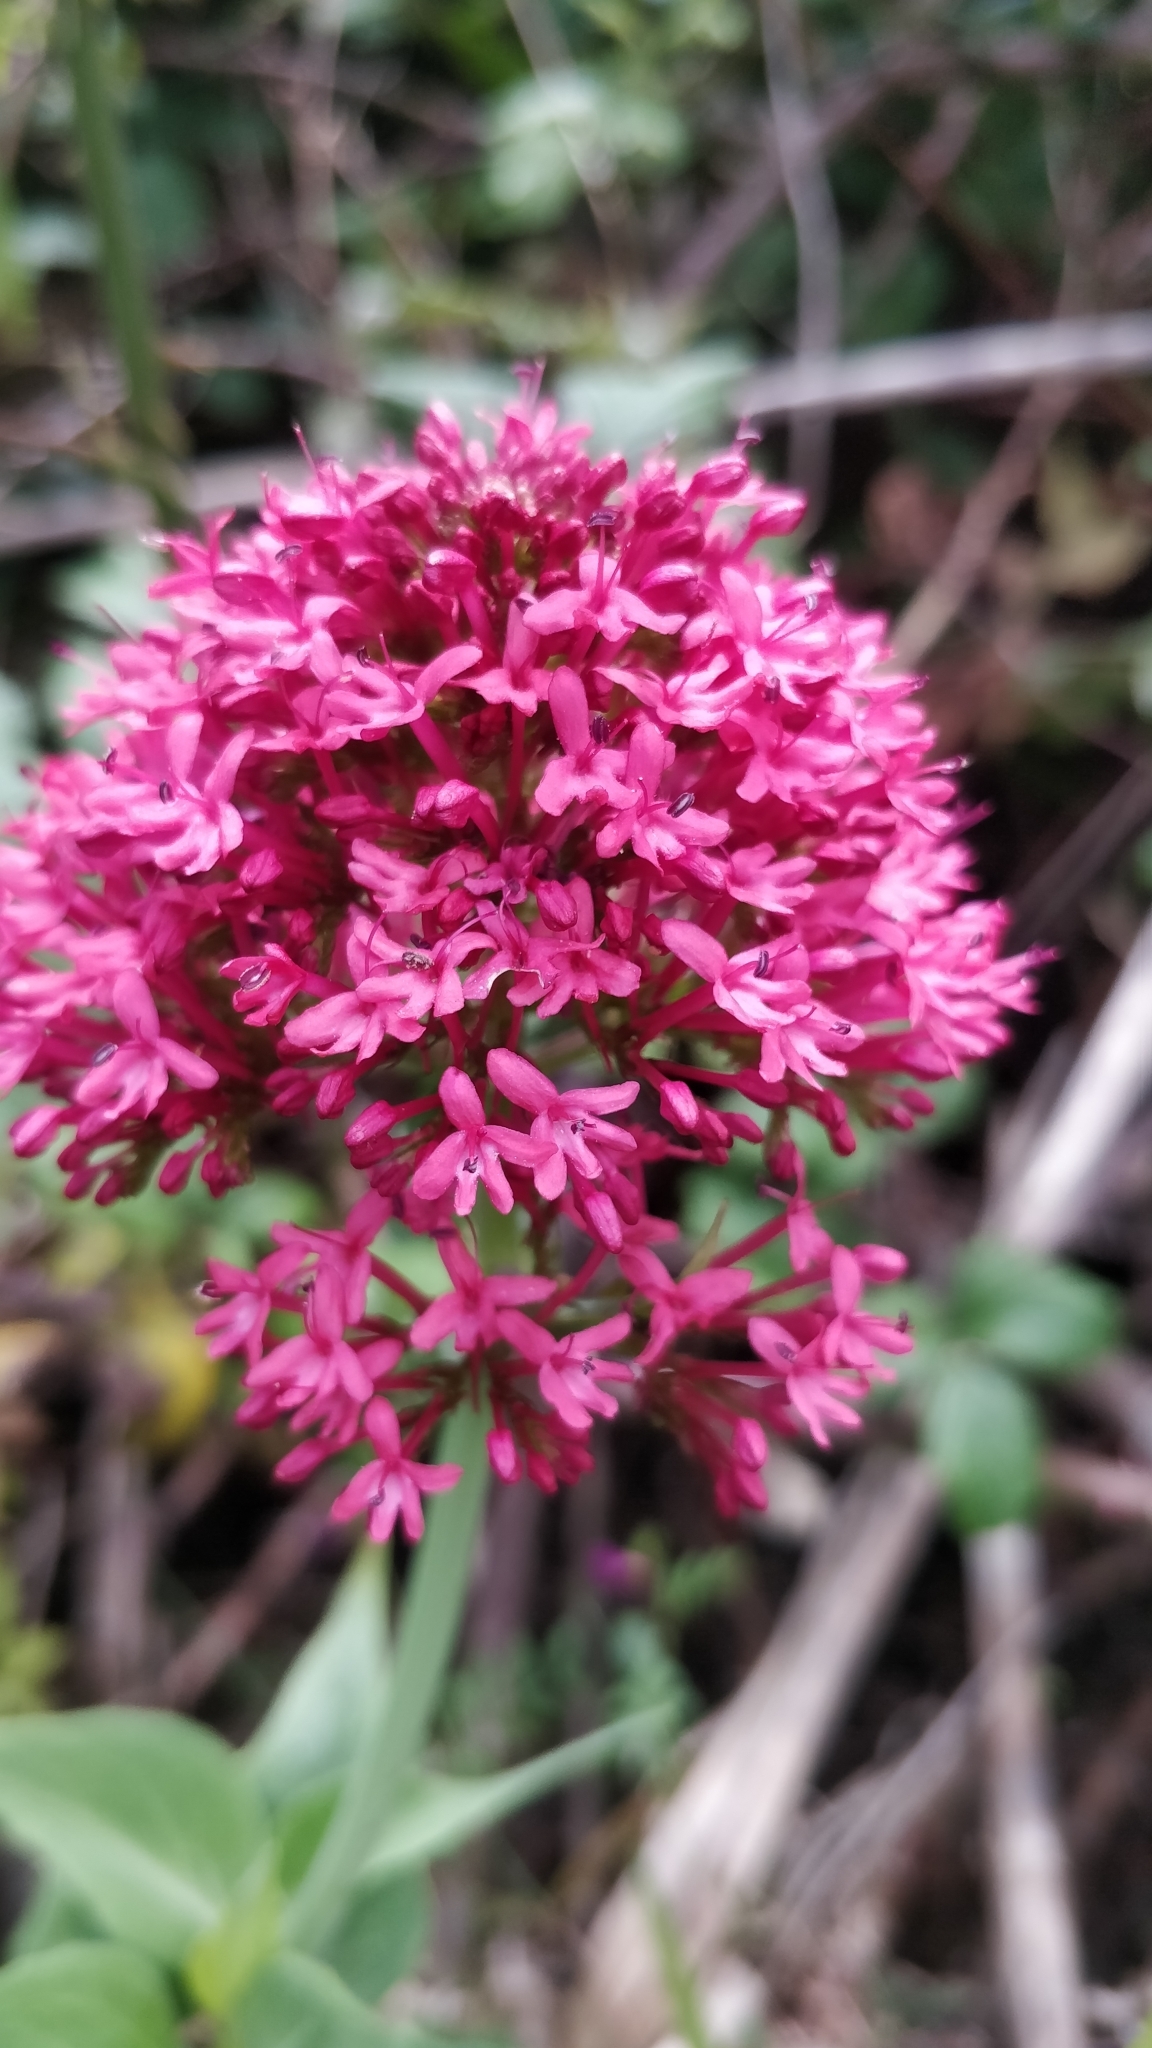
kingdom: Plantae
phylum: Tracheophyta
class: Magnoliopsida
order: Dipsacales
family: Caprifoliaceae
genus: Centranthus
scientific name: Centranthus ruber
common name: Red valerian
